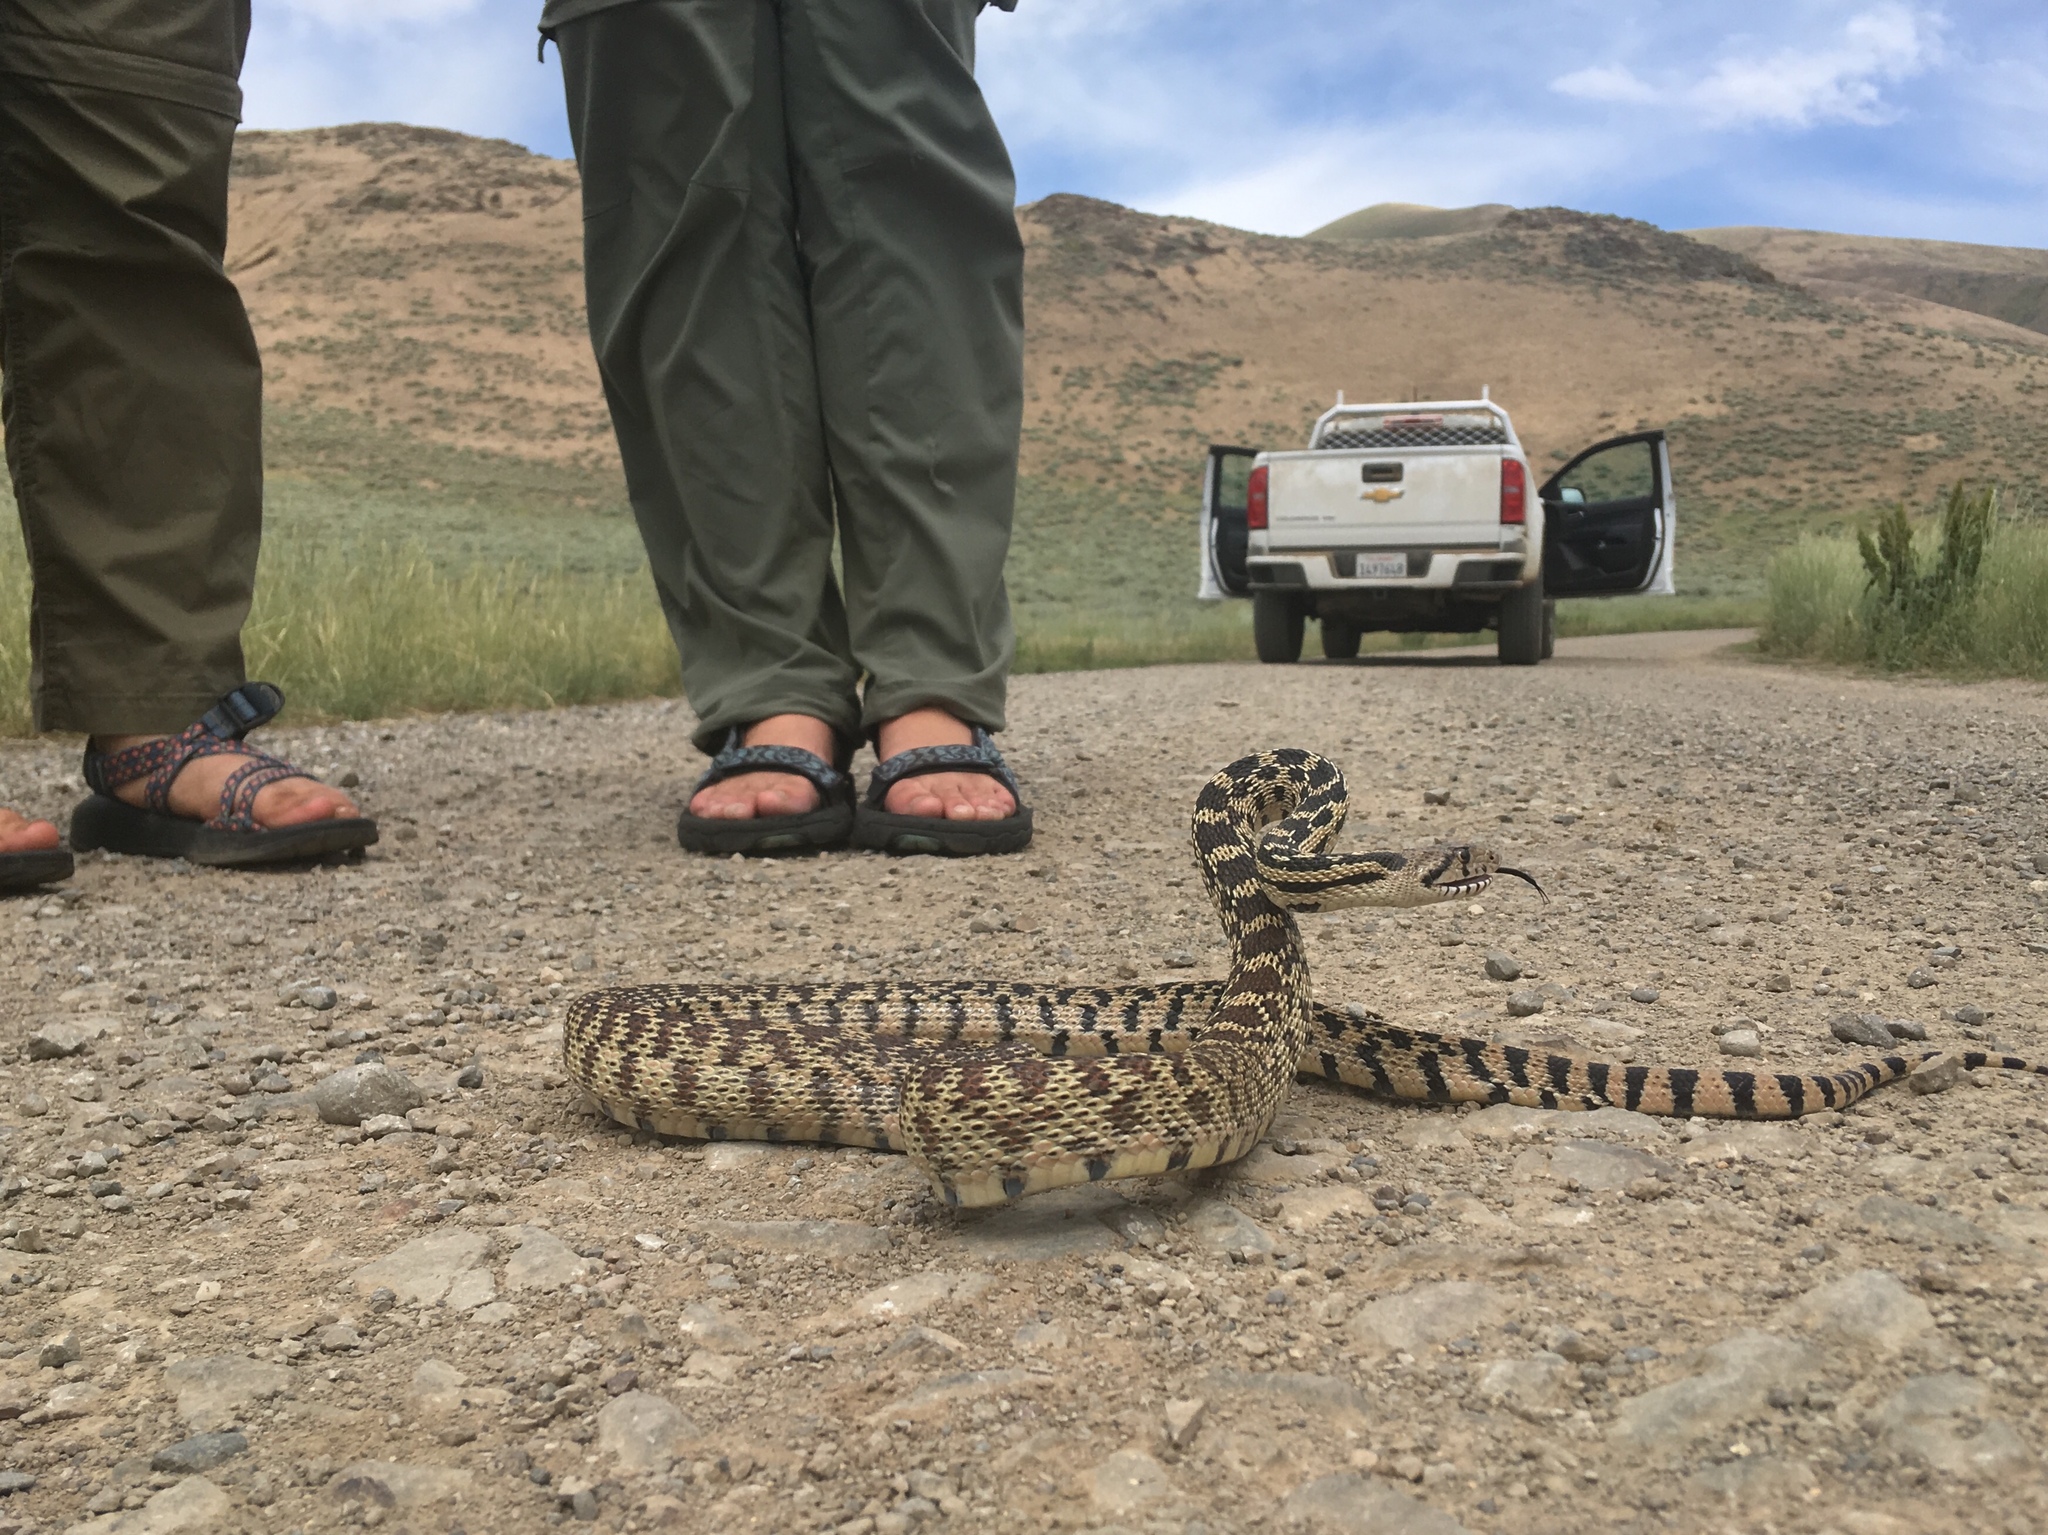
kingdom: Animalia
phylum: Chordata
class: Squamata
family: Colubridae
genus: Pituophis
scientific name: Pituophis catenifer
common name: Gopher snake
